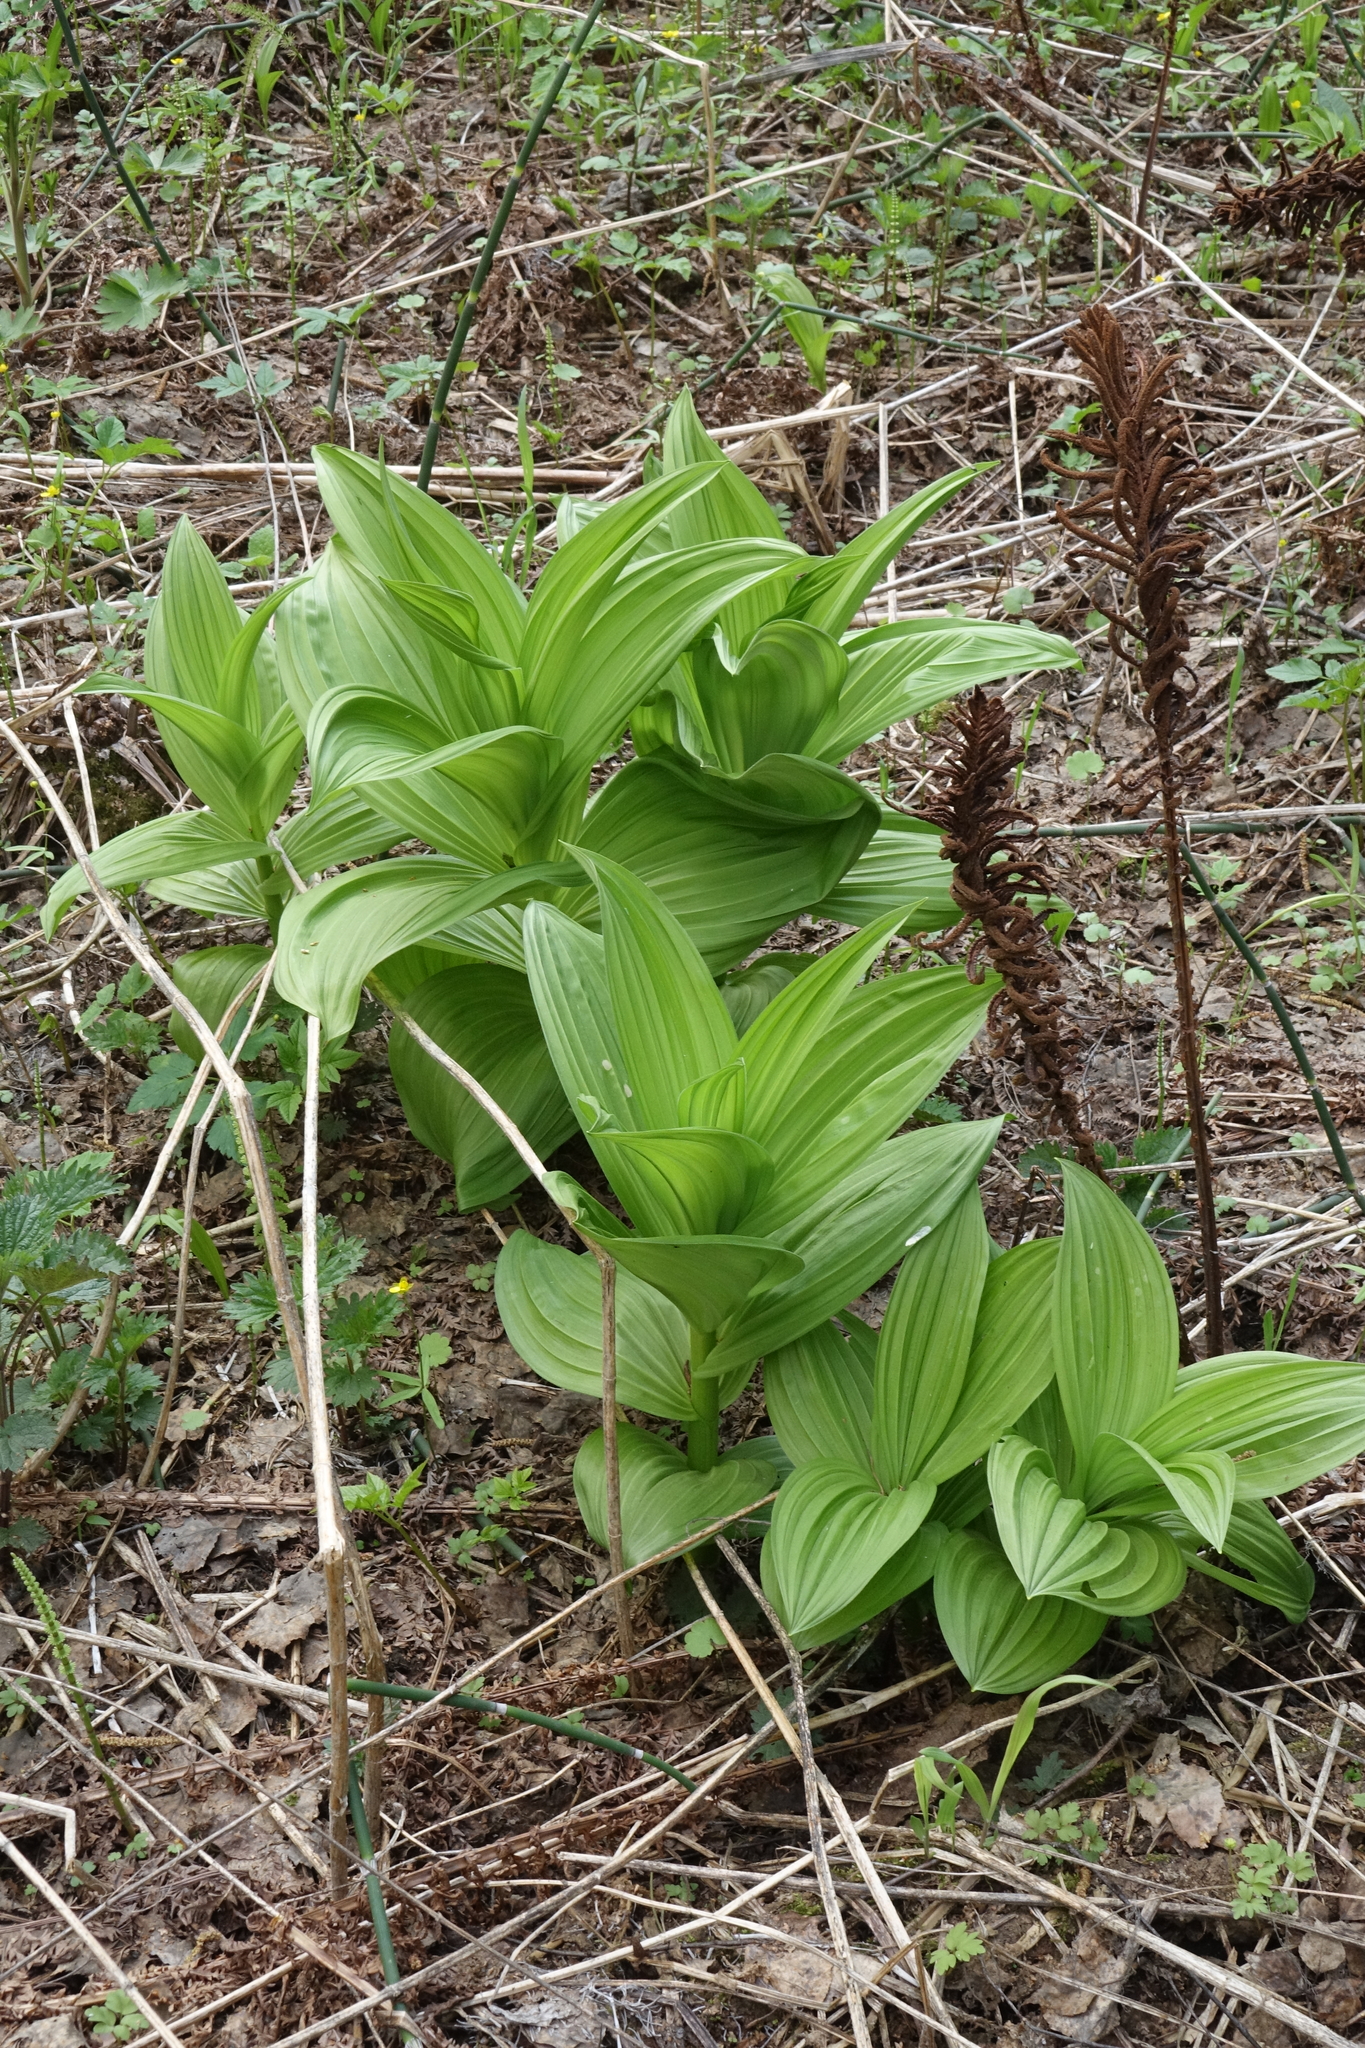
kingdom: Plantae
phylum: Tracheophyta
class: Liliopsida
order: Liliales
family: Melanthiaceae
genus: Veratrum
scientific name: Veratrum lobelianum
